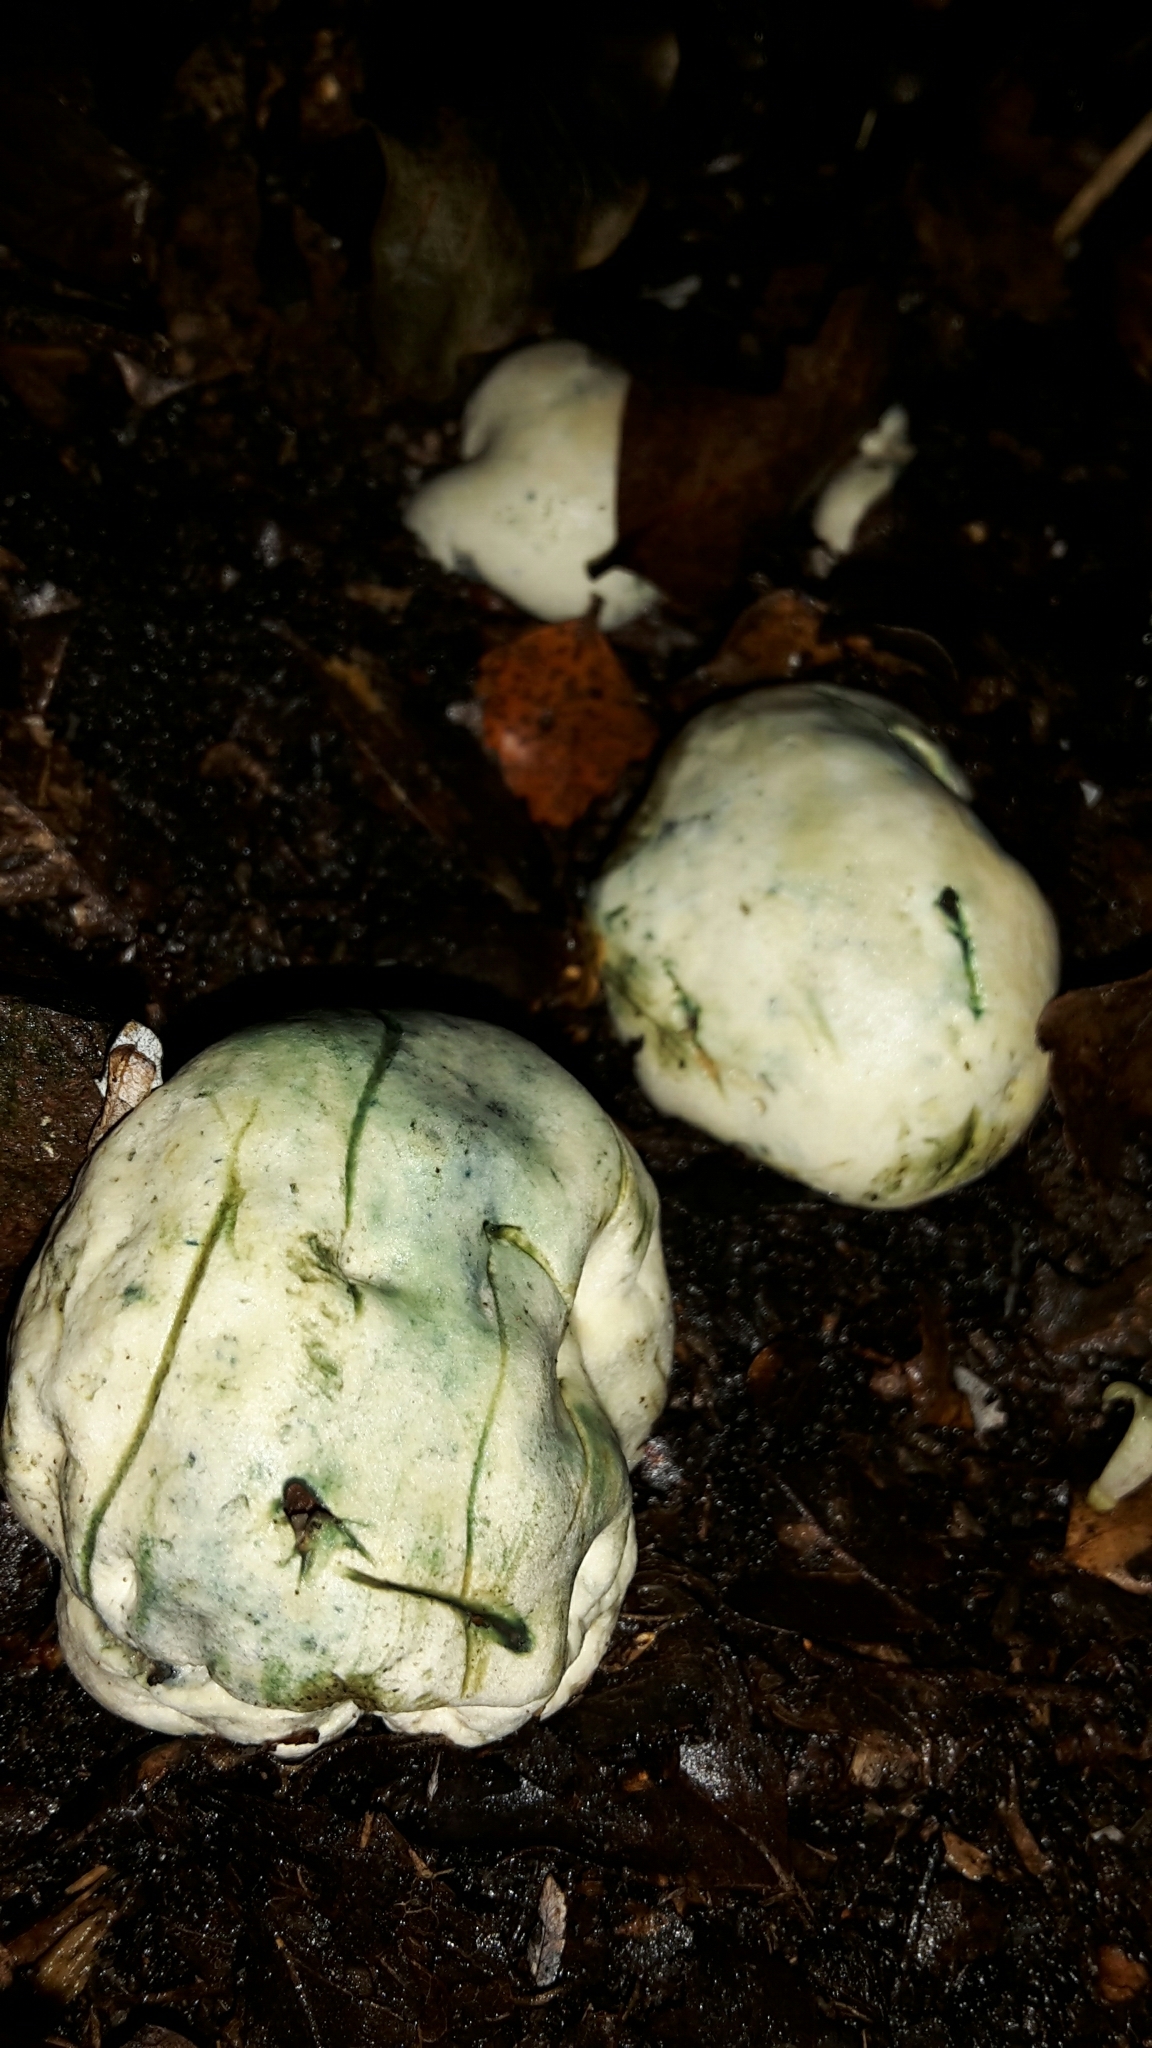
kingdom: Fungi
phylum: Basidiomycota
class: Agaricomycetes
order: Boletales
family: Boletaceae
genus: Leccinum
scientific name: Leccinum pachyderme
